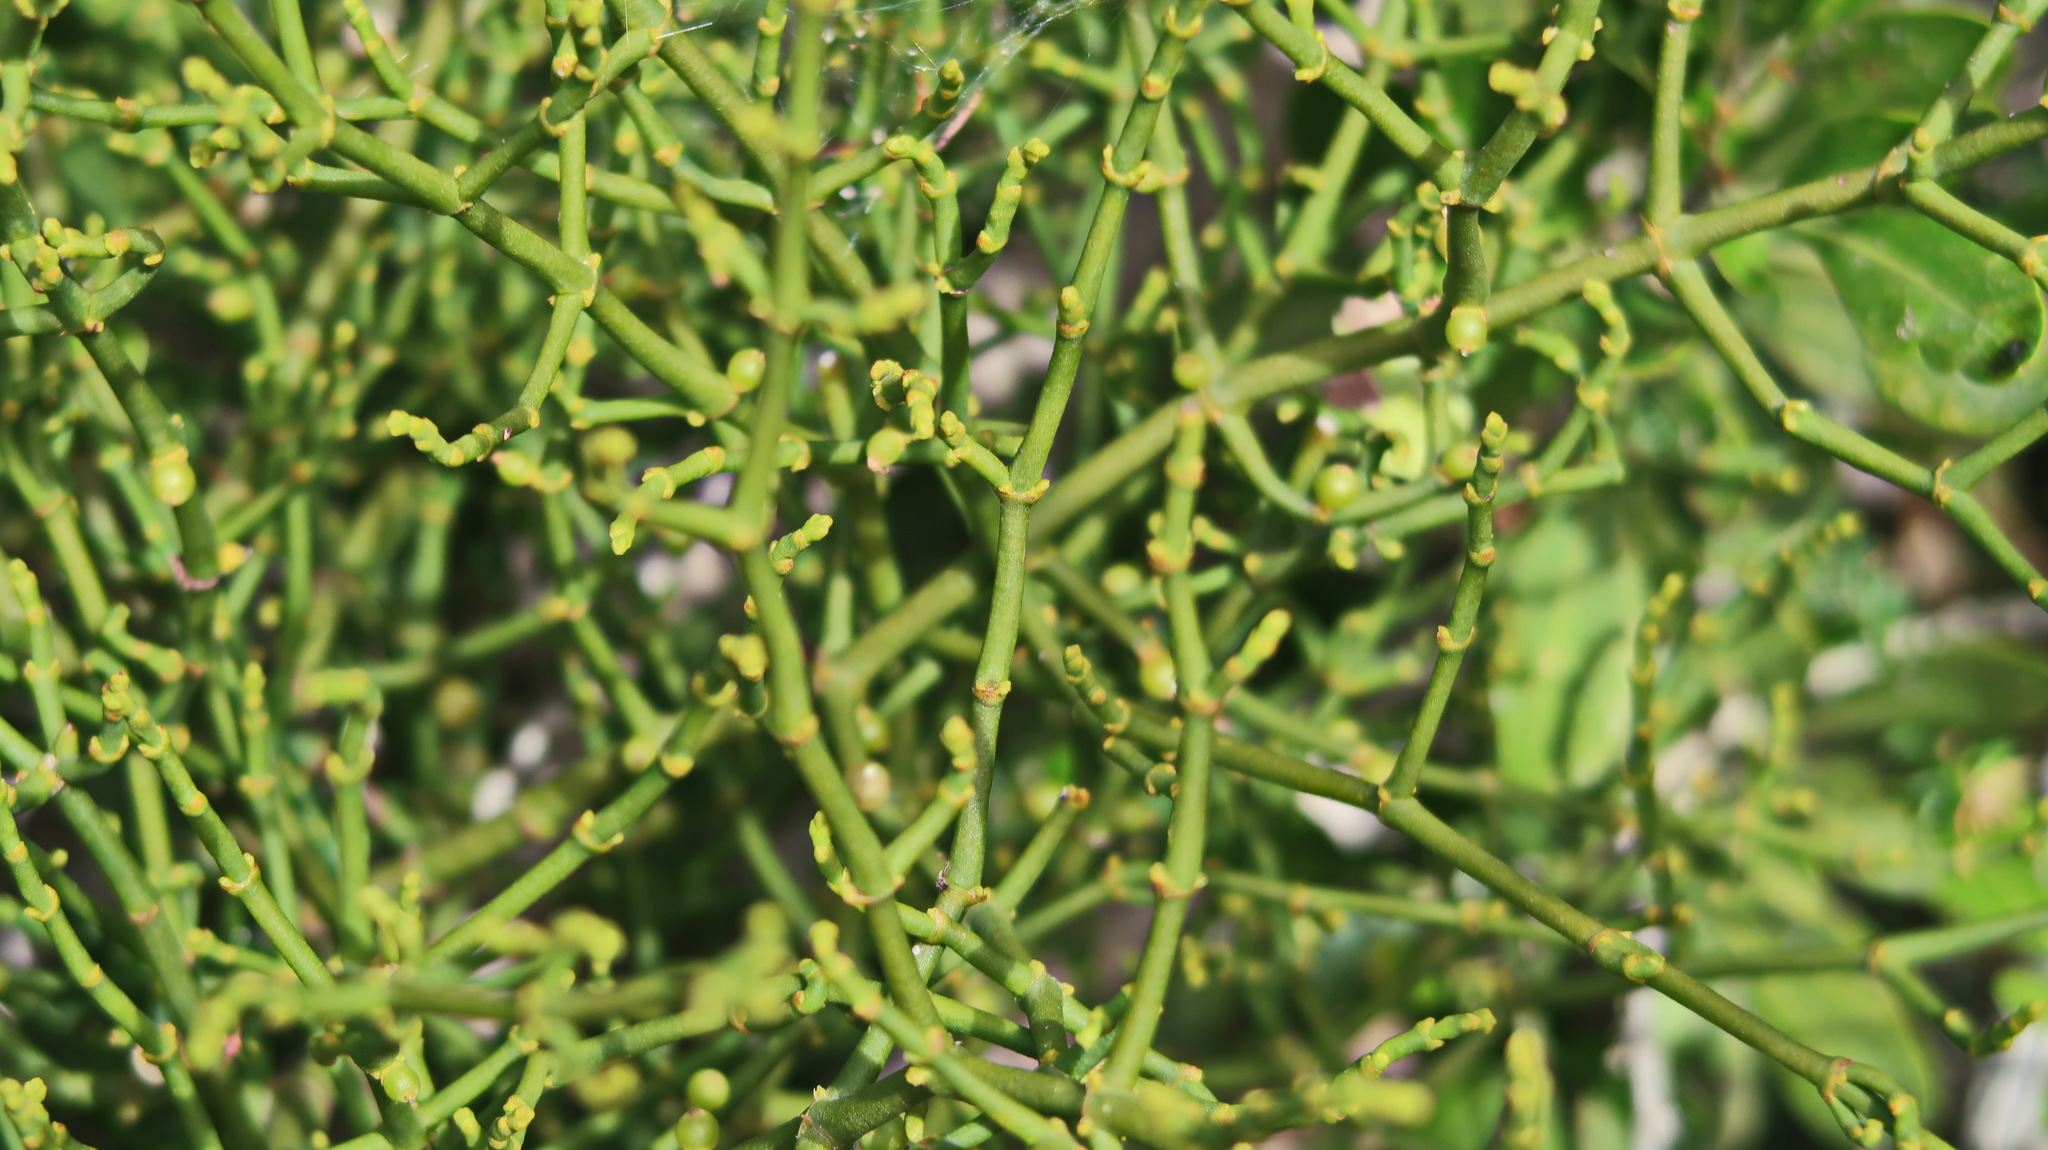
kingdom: Plantae
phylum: Tracheophyta
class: Magnoliopsida
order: Santalales
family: Viscaceae
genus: Viscum
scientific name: Viscum capense
